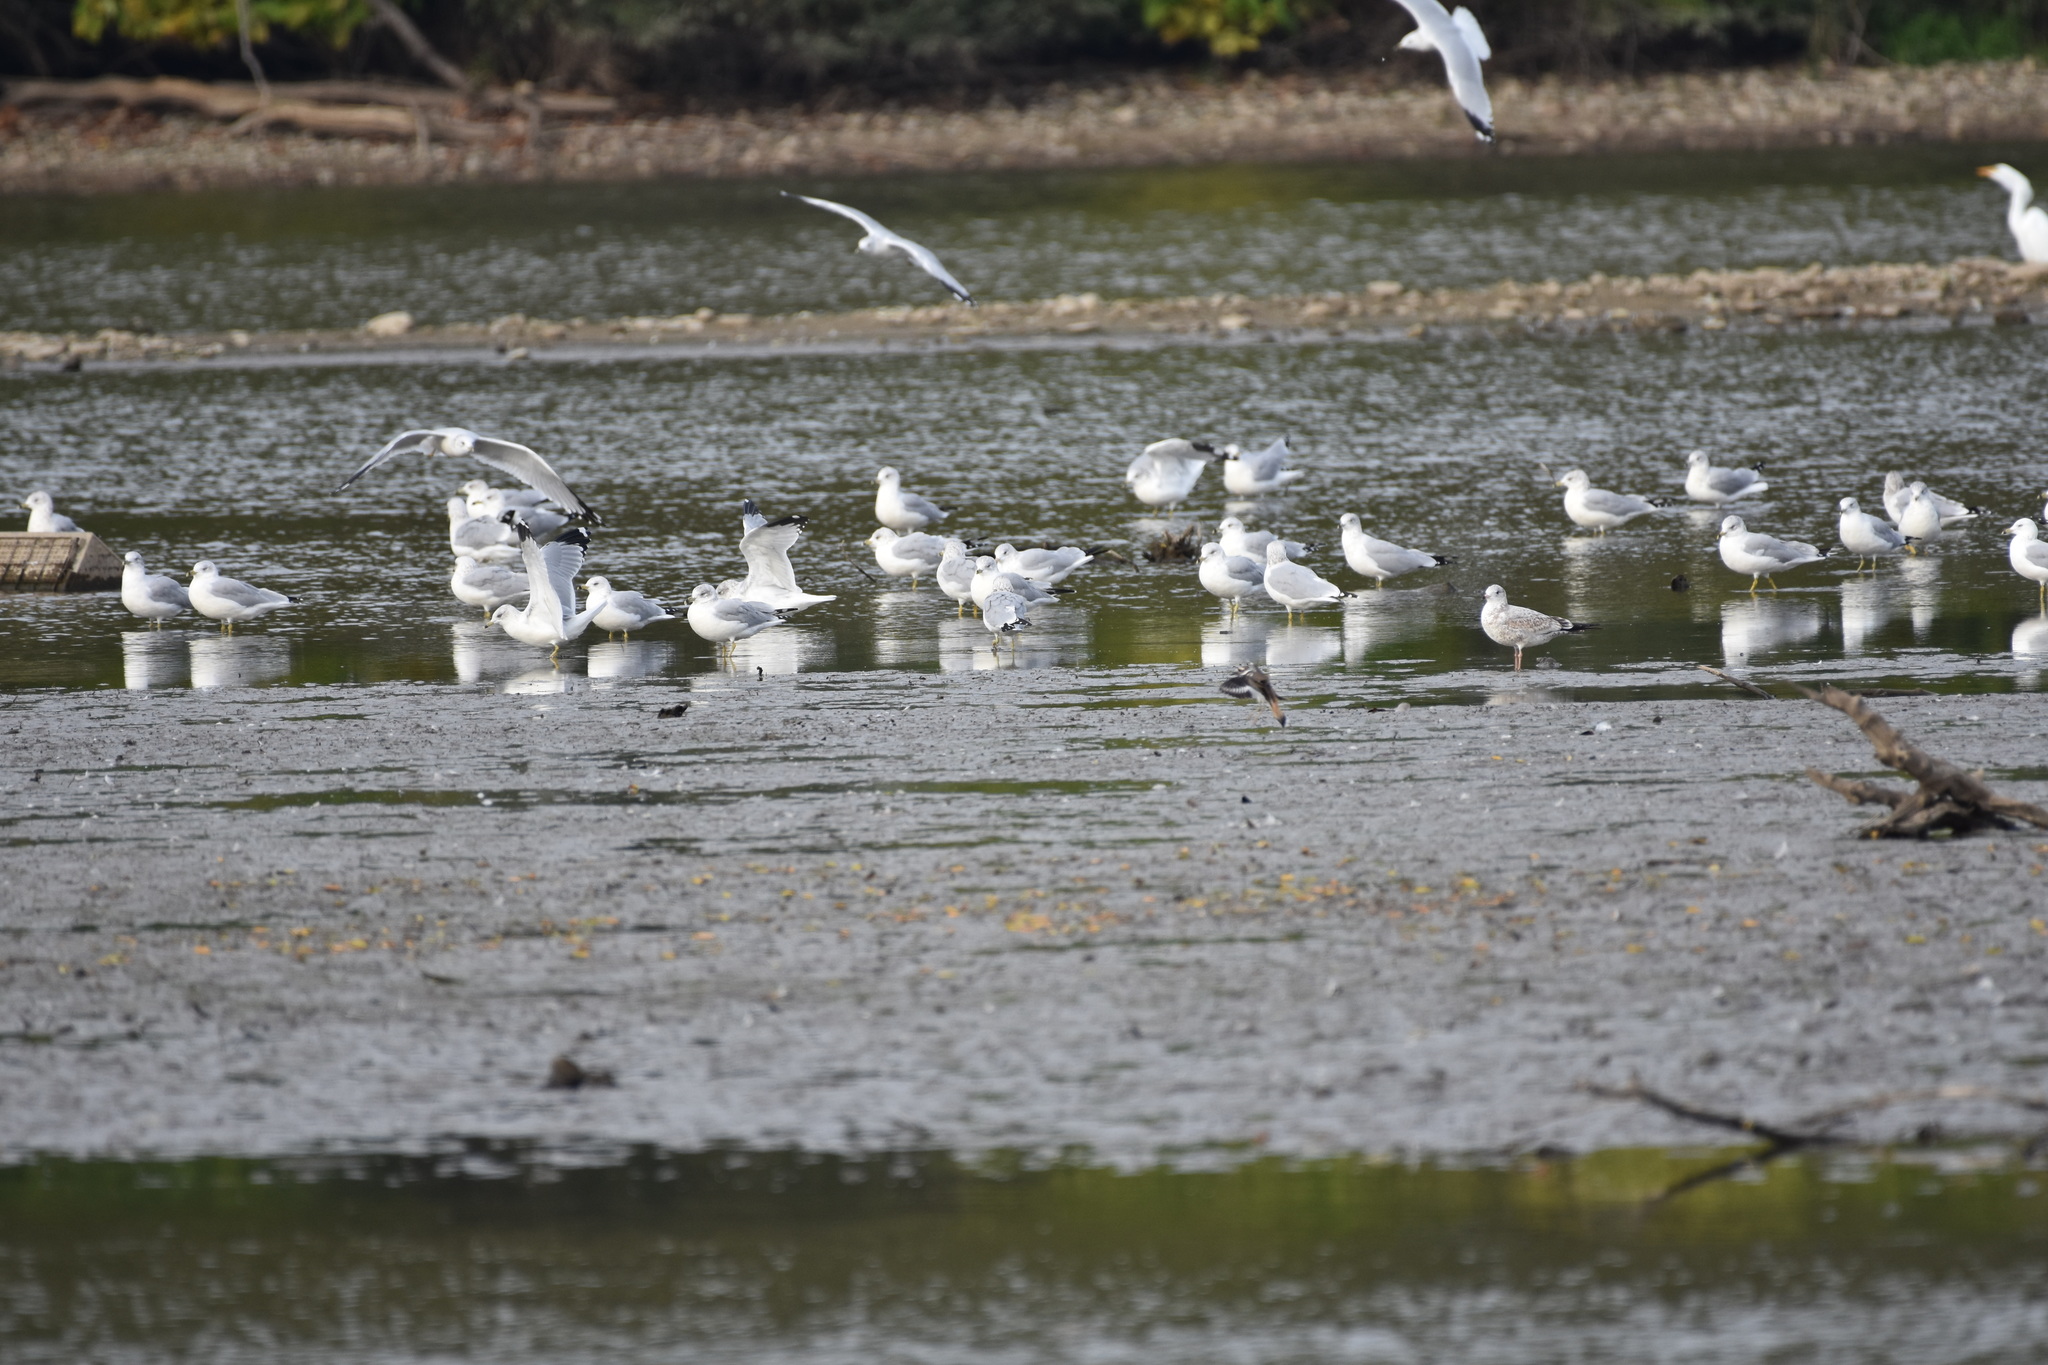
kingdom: Animalia
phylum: Chordata
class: Aves
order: Charadriiformes
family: Laridae
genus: Larus
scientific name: Larus delawarensis
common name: Ring-billed gull
